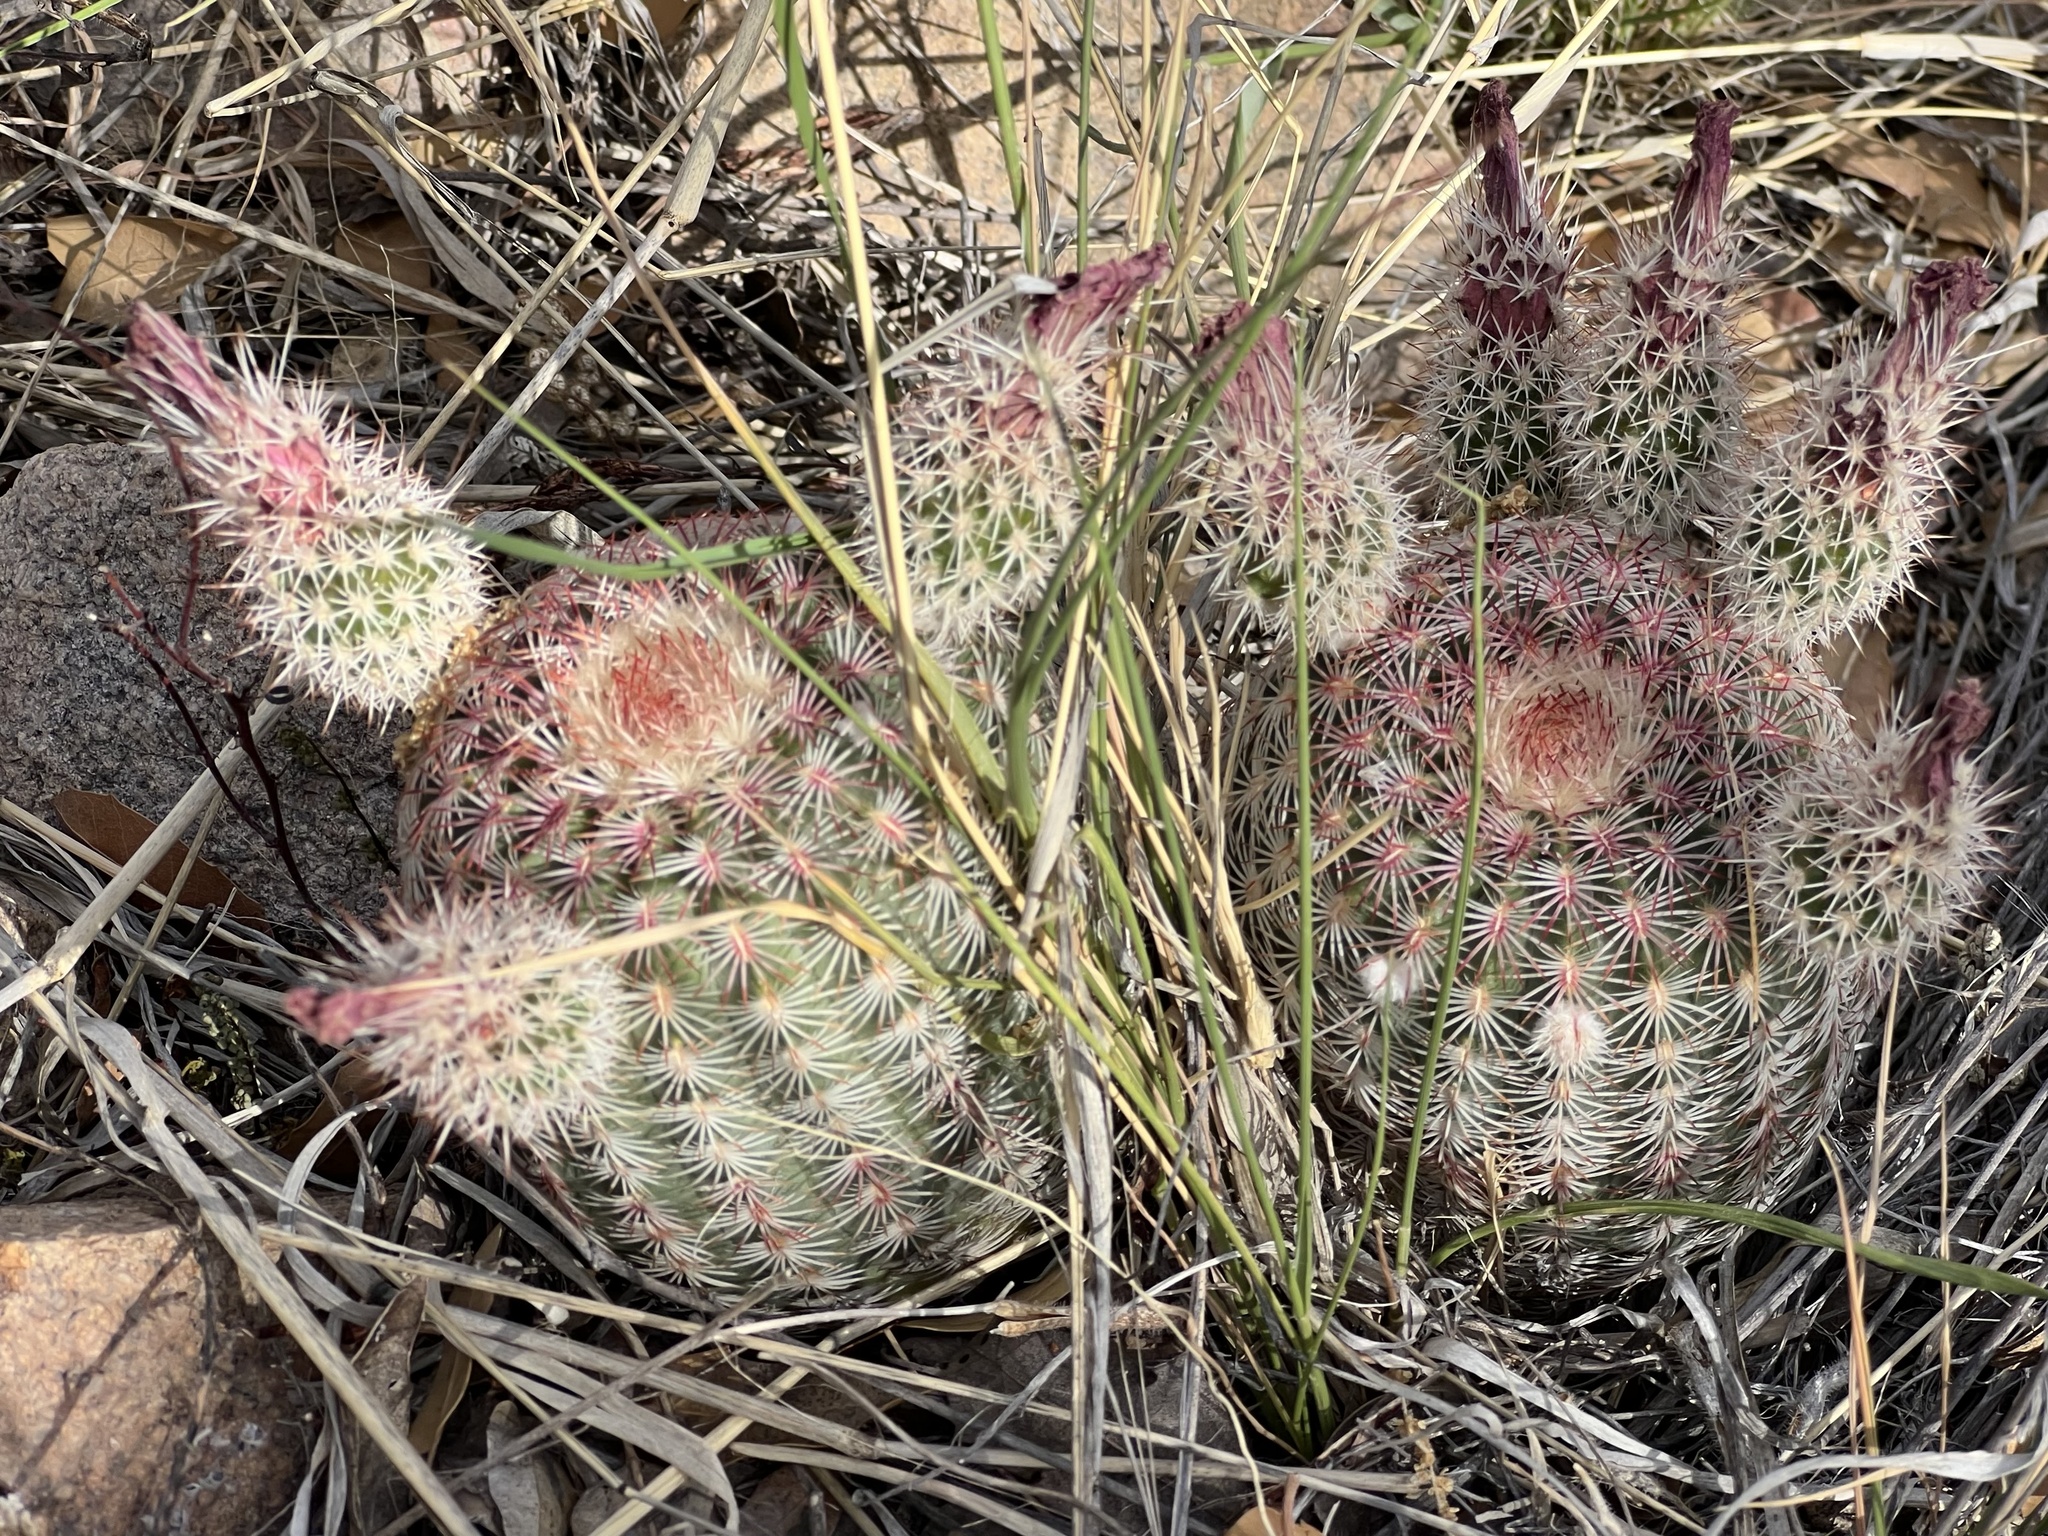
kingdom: Plantae
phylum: Tracheophyta
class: Magnoliopsida
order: Caryophyllales
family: Cactaceae
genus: Echinocereus
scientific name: Echinocereus rigidissimus
